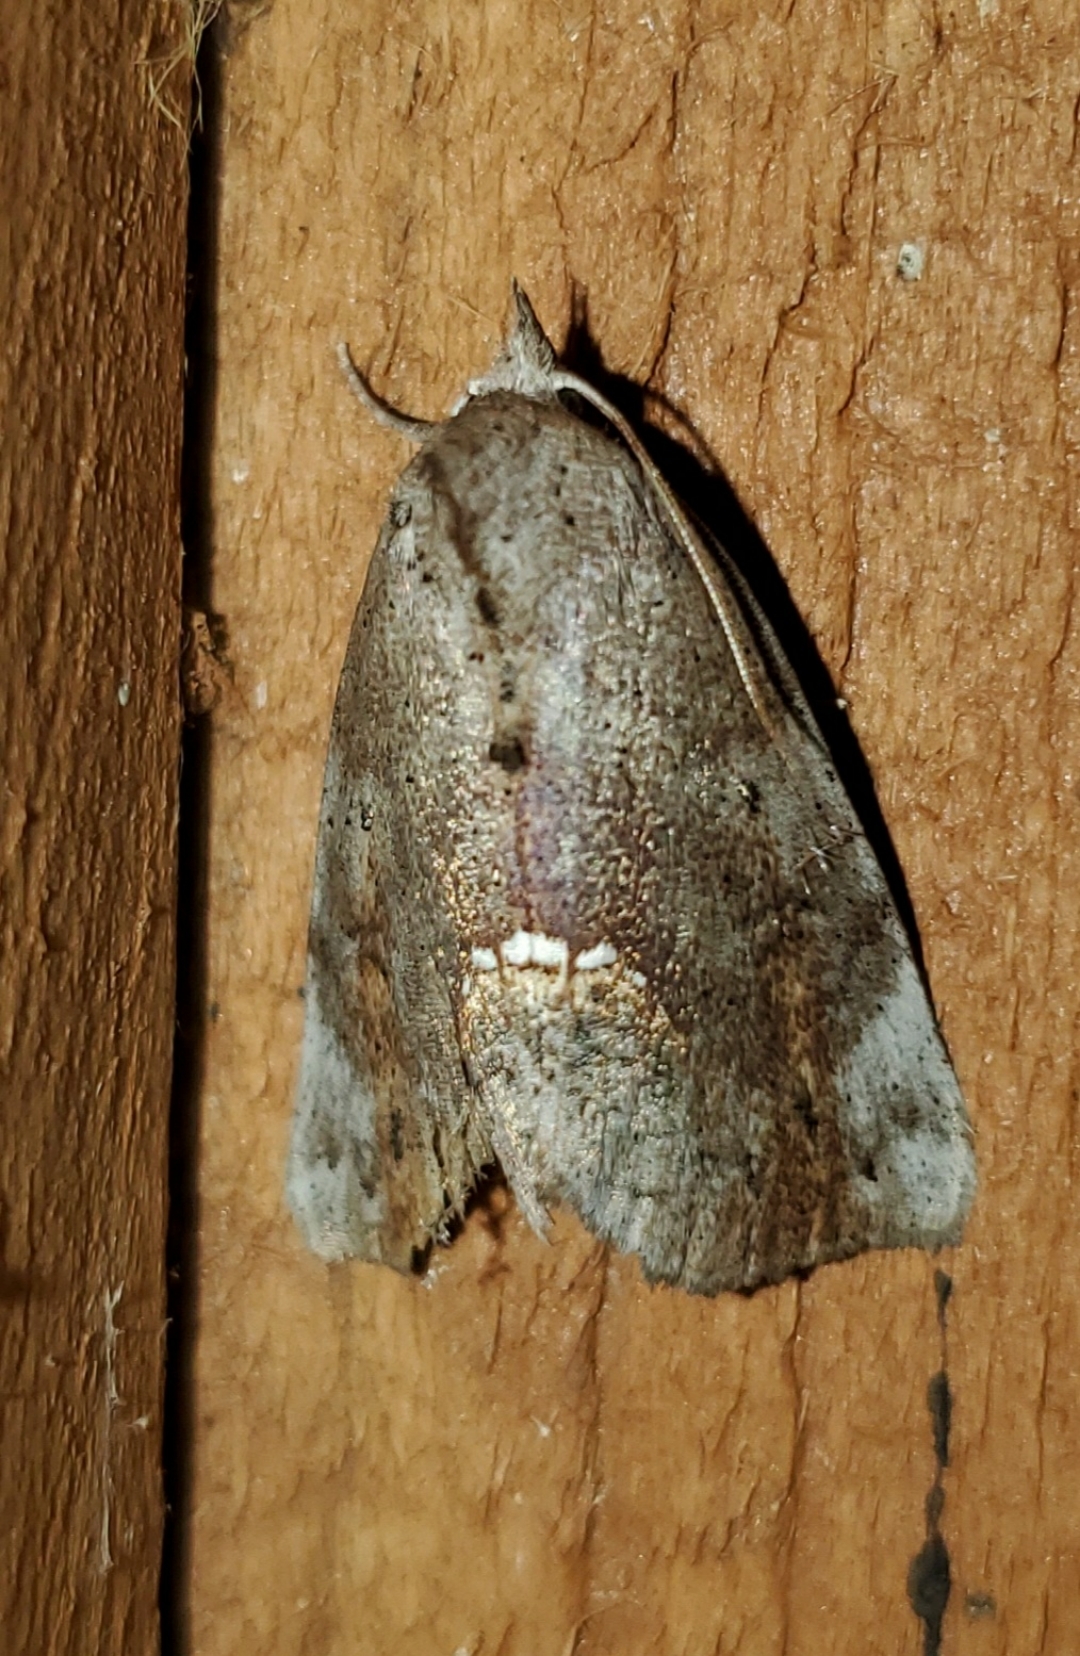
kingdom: Animalia
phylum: Arthropoda
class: Insecta
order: Lepidoptera
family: Erebidae
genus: Hypsoropha
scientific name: Hypsoropha hormos
